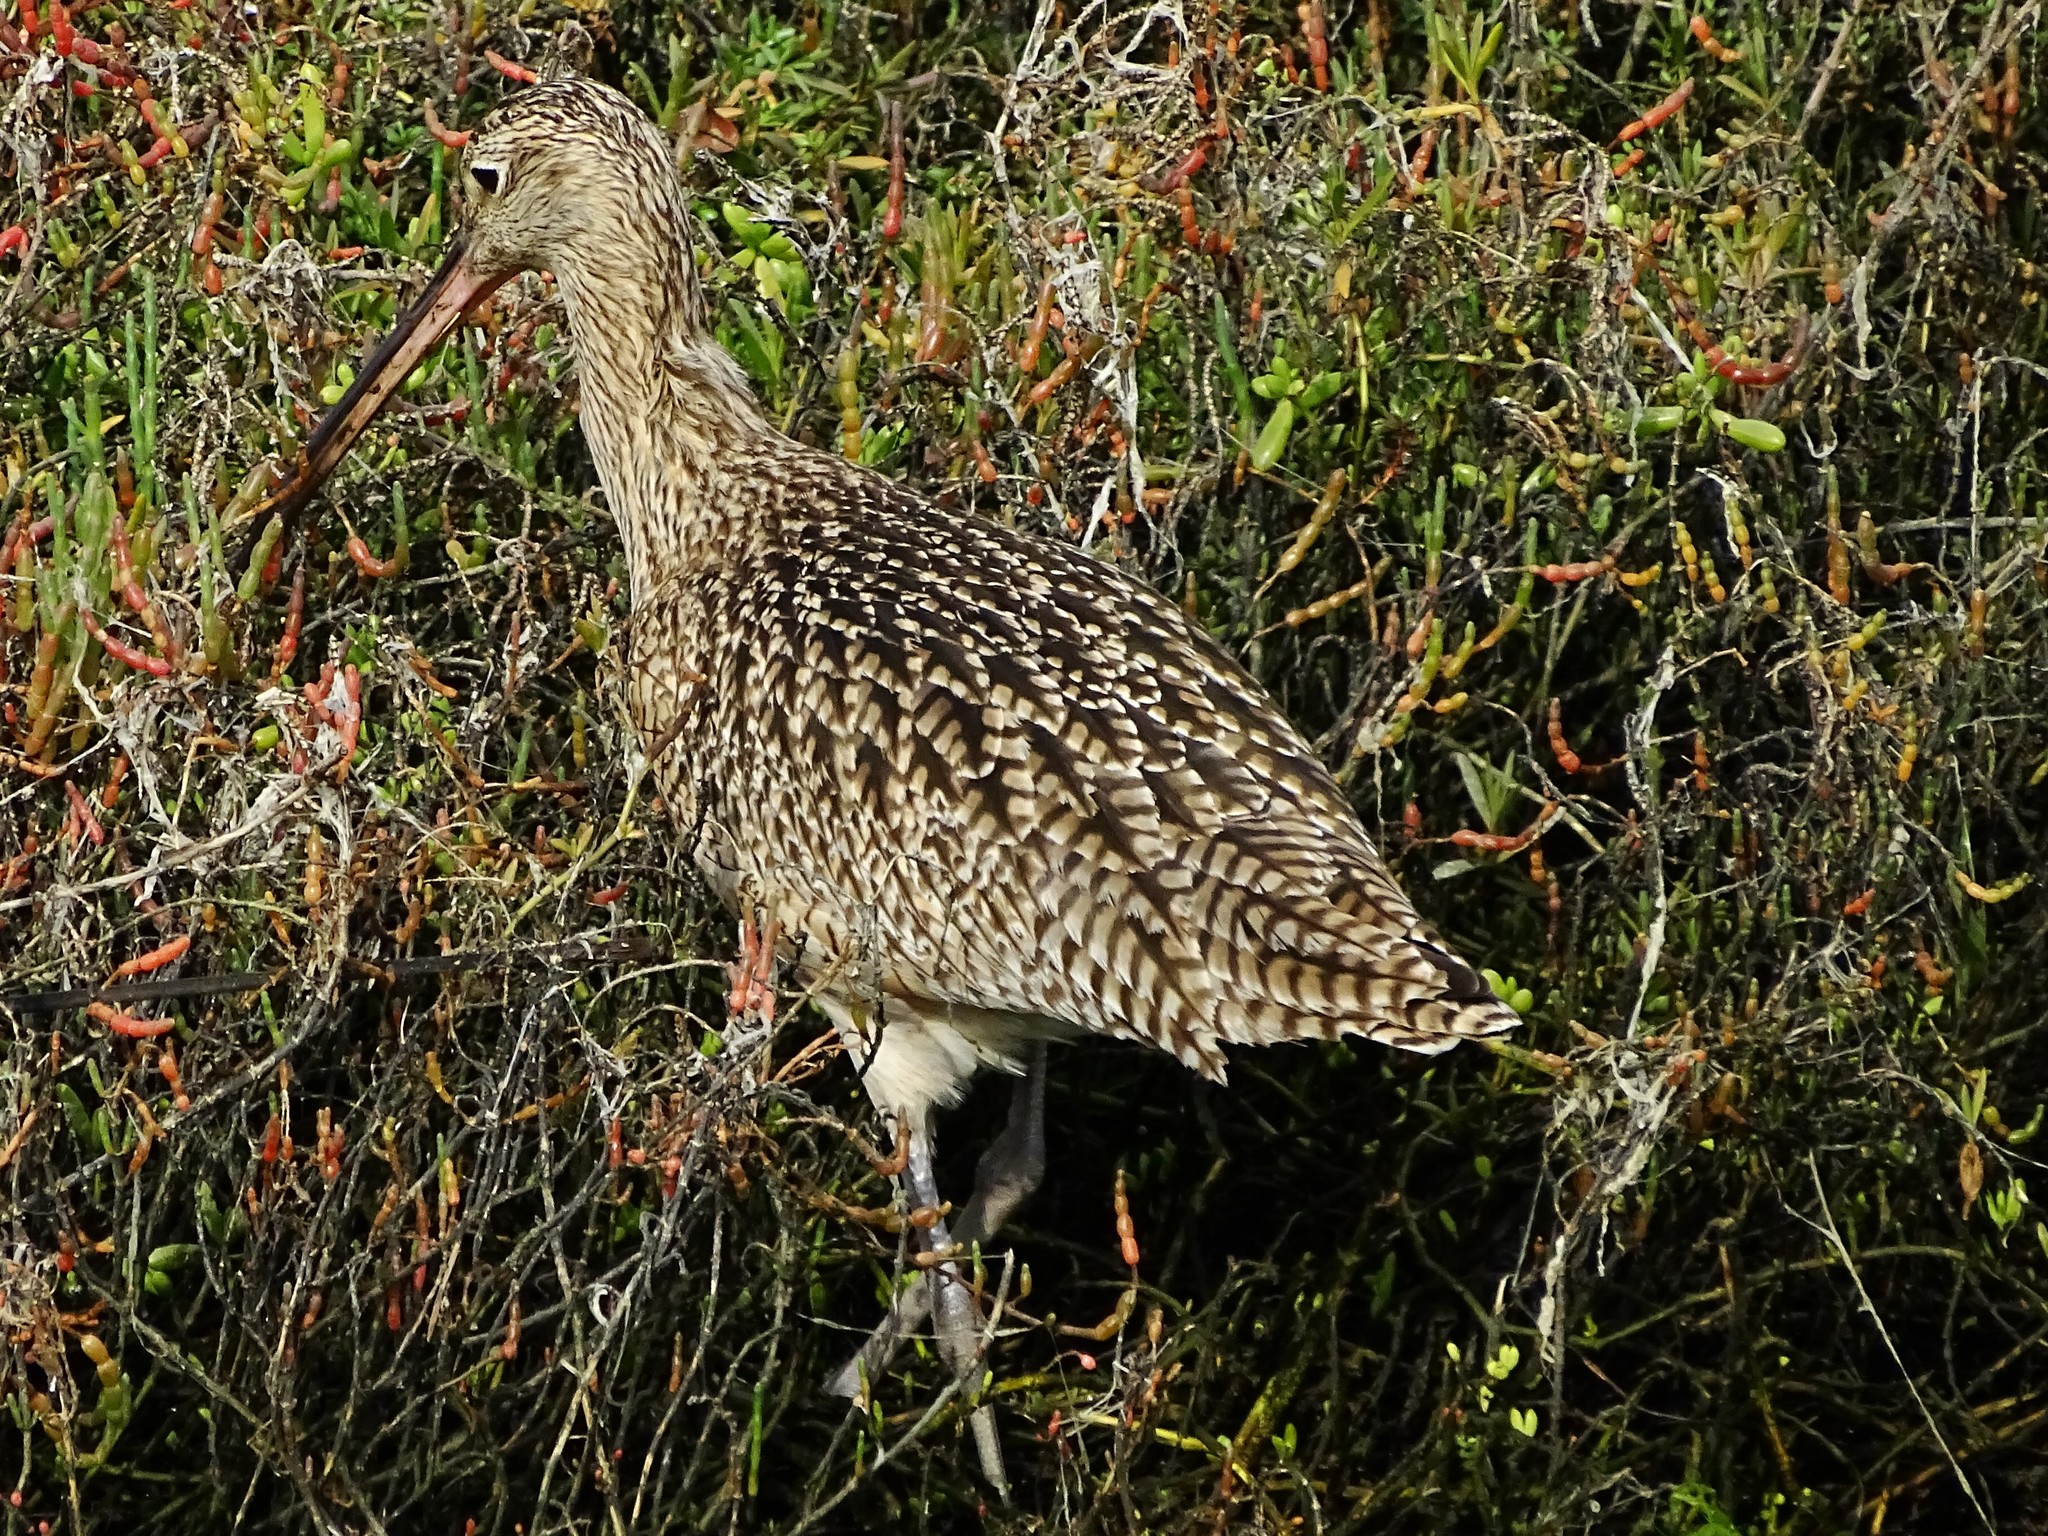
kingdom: Animalia
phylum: Chordata
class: Aves
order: Charadriiformes
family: Scolopacidae
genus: Numenius
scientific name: Numenius americanus
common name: Long-billed curlew
